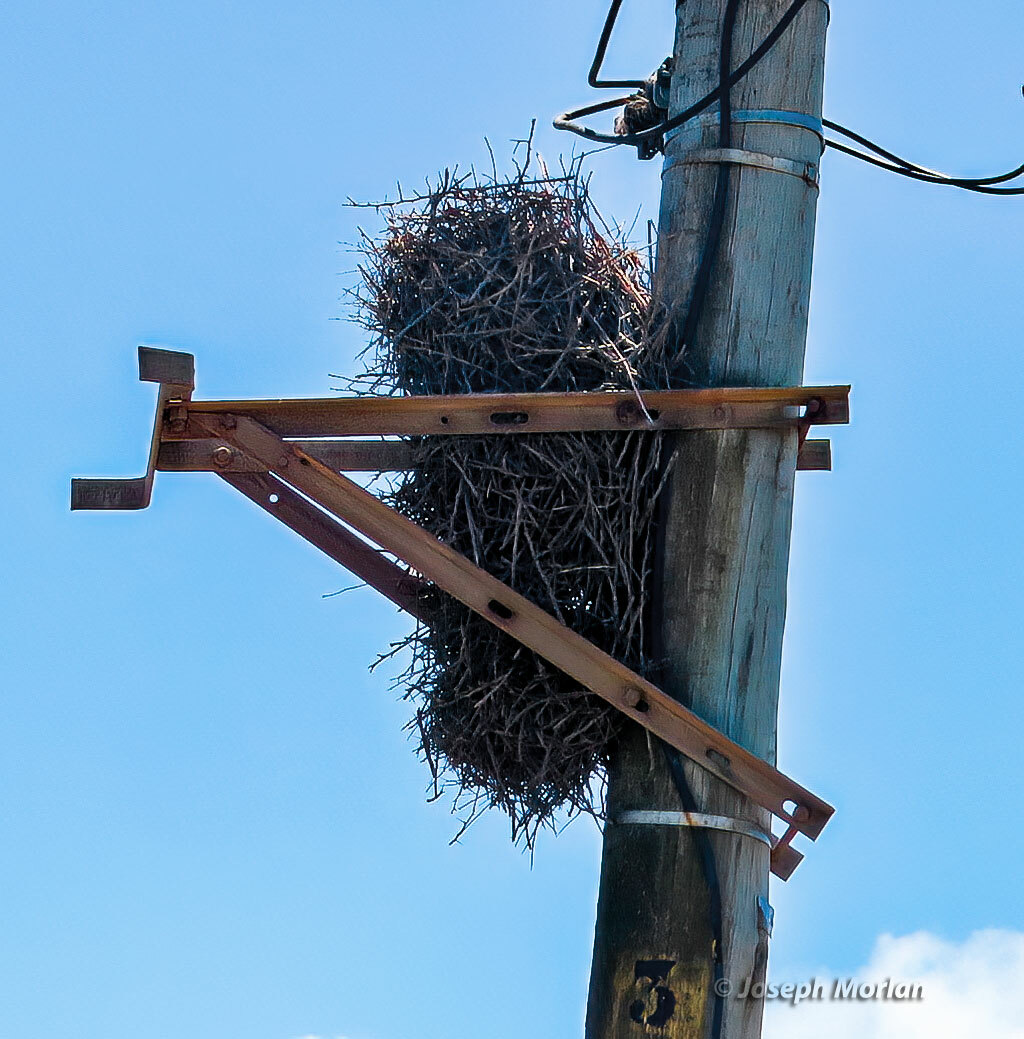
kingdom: Animalia
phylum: Chordata
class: Aves
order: Passeriformes
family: Furnariidae
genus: Anumbius
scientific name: Anumbius annumbi
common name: Firewood-gatherer
